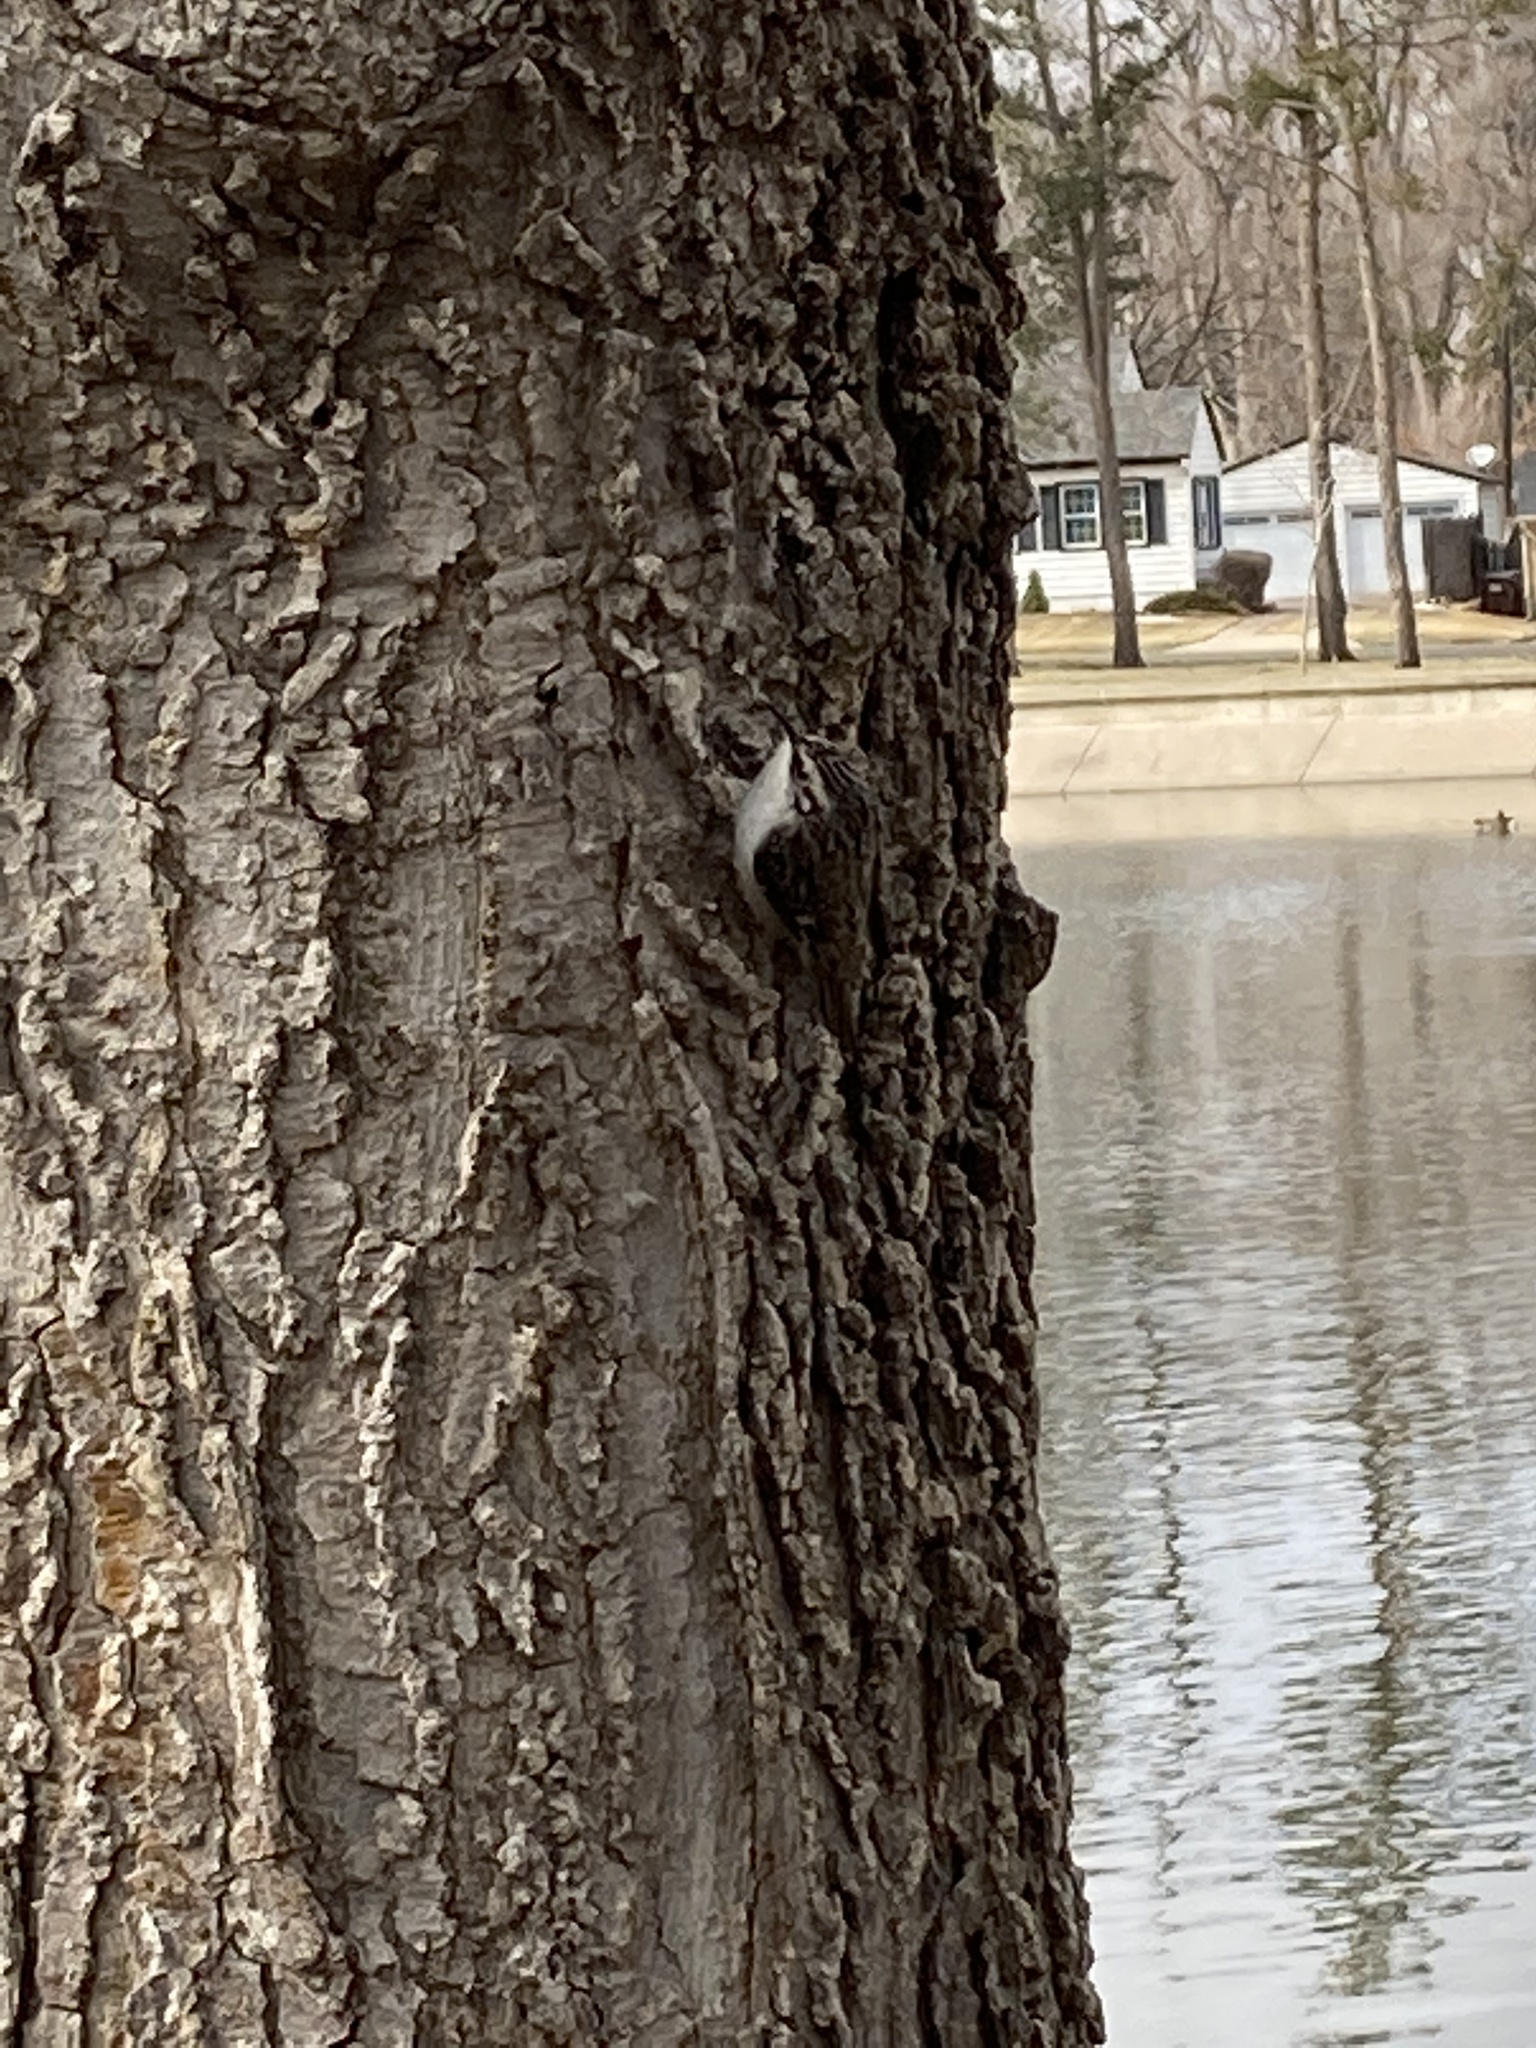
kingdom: Animalia
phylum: Chordata
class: Aves
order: Passeriformes
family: Certhiidae
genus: Certhia
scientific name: Certhia americana
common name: Brown creeper
